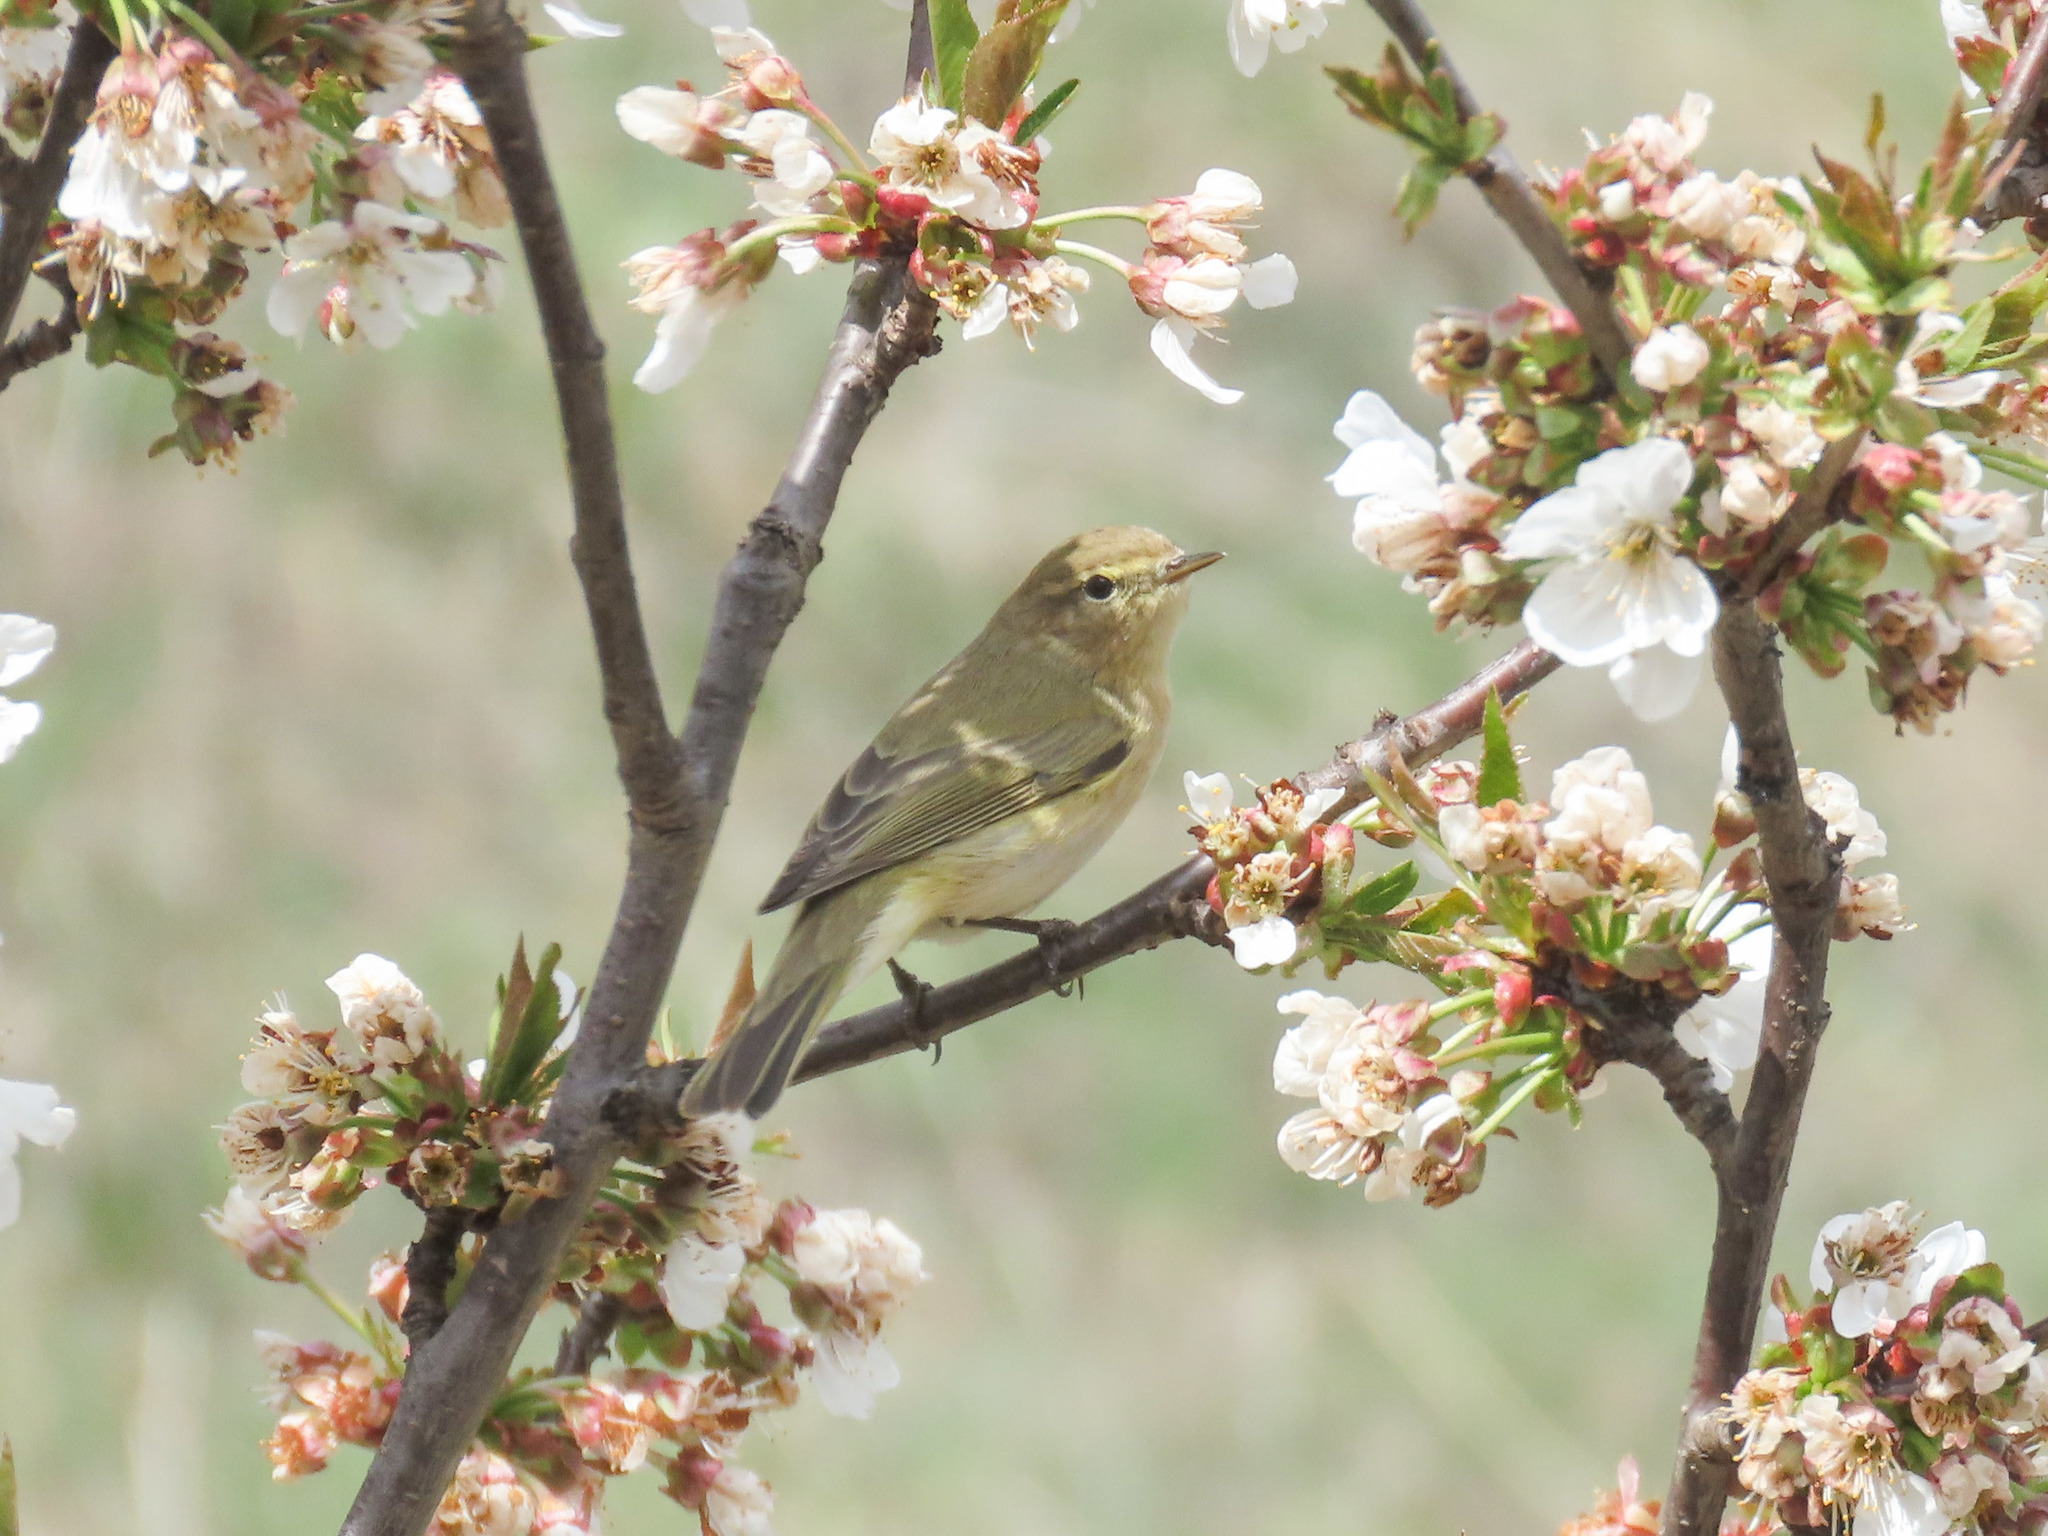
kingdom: Animalia
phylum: Chordata
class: Aves
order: Passeriformes
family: Phylloscopidae
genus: Phylloscopus
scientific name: Phylloscopus collybita
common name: Common chiffchaff
